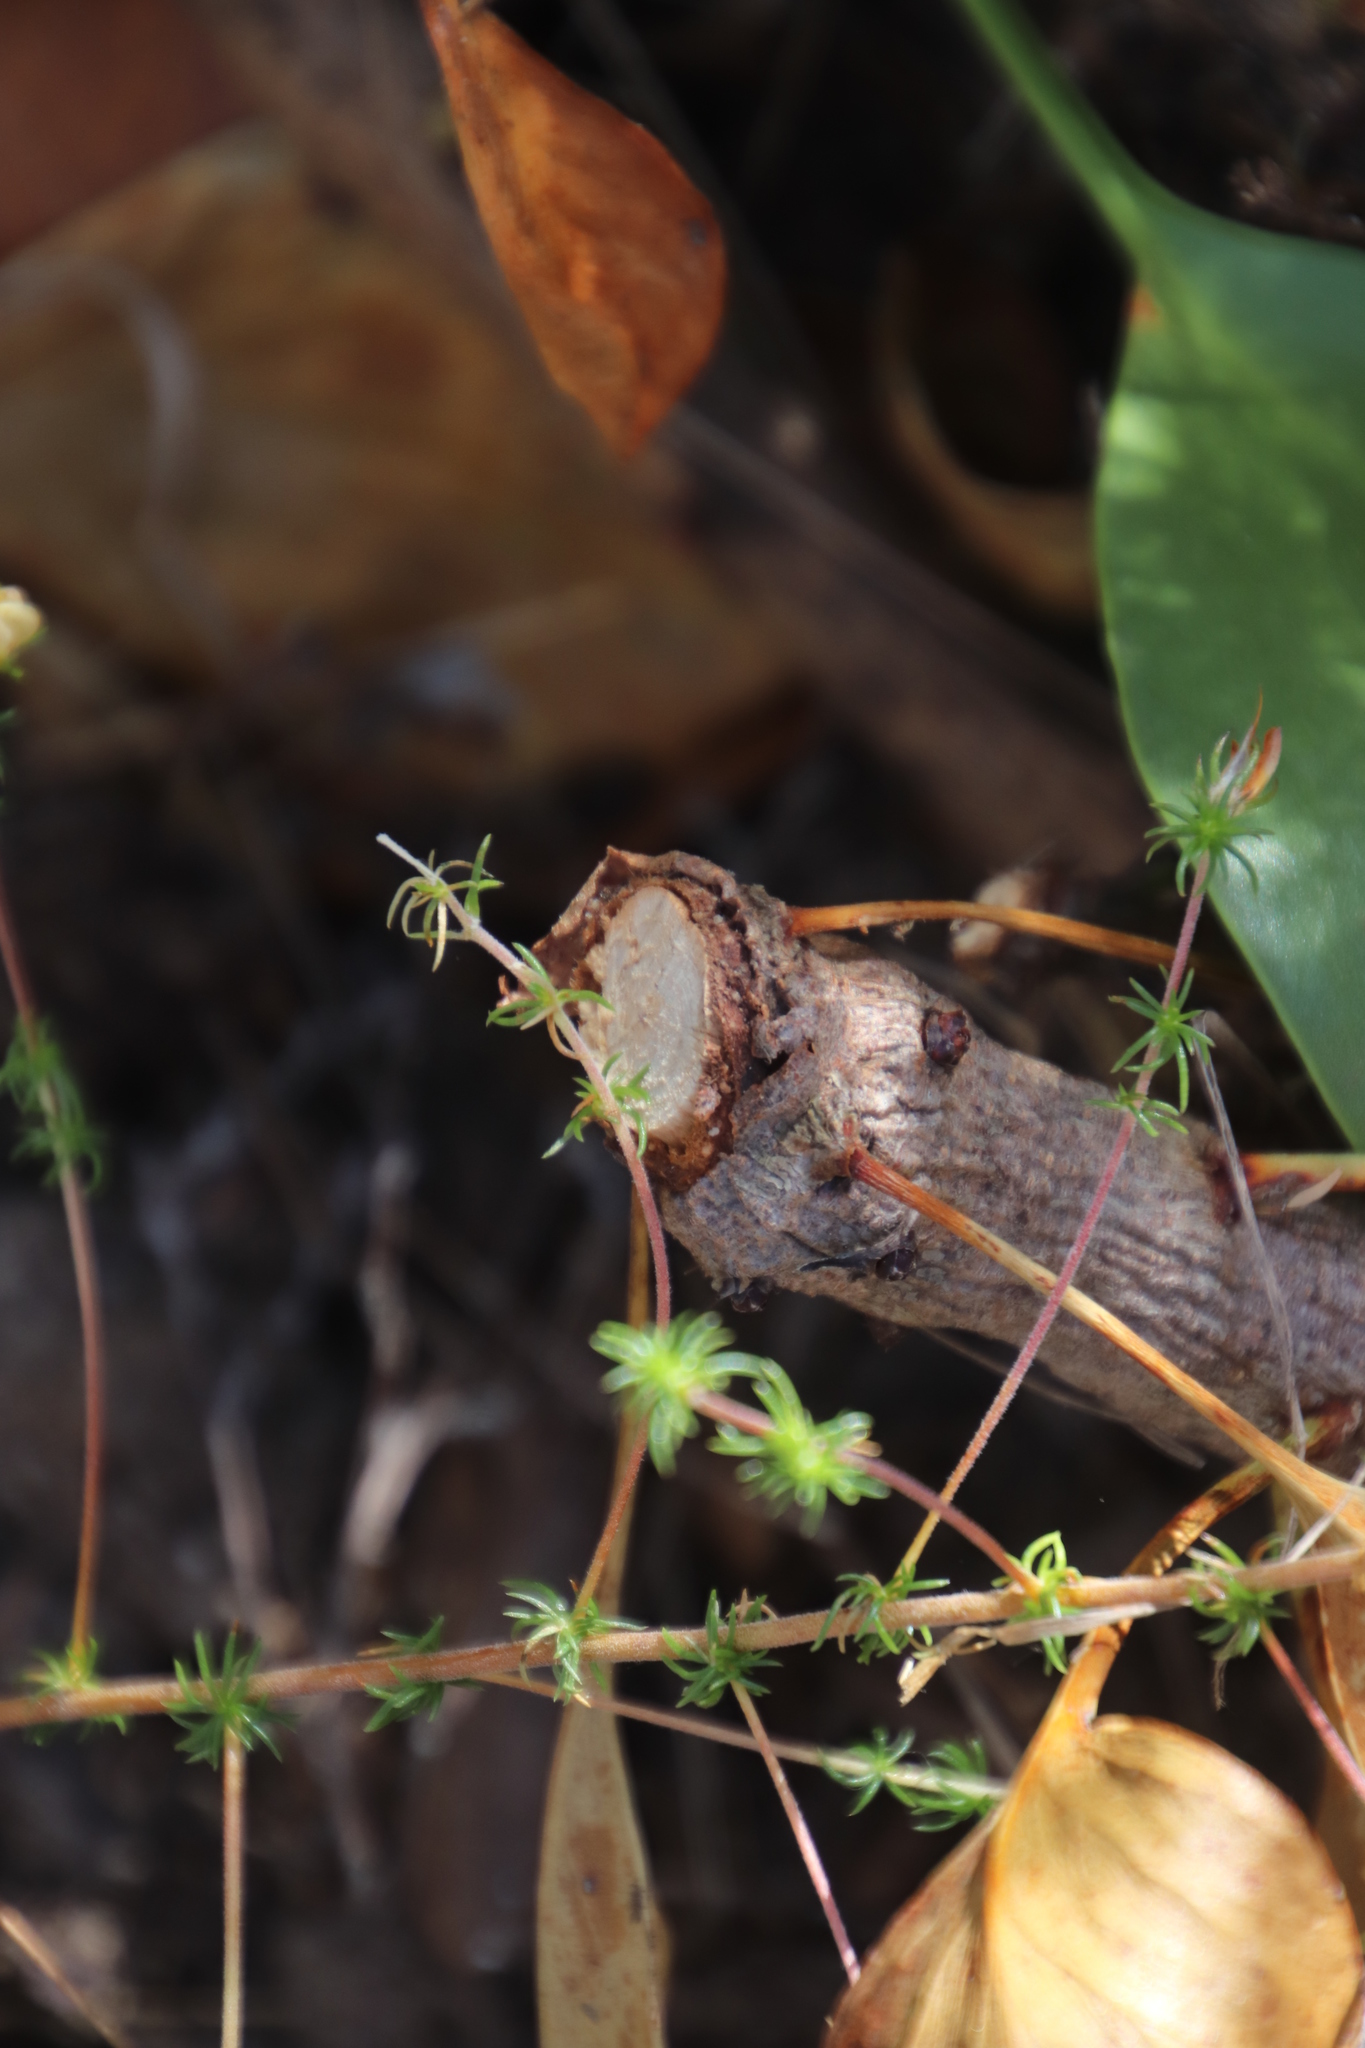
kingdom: Plantae
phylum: Tracheophyta
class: Magnoliopsida
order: Proteales
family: Proteaceae
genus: Protea
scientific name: Protea cynaroides
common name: King protea
